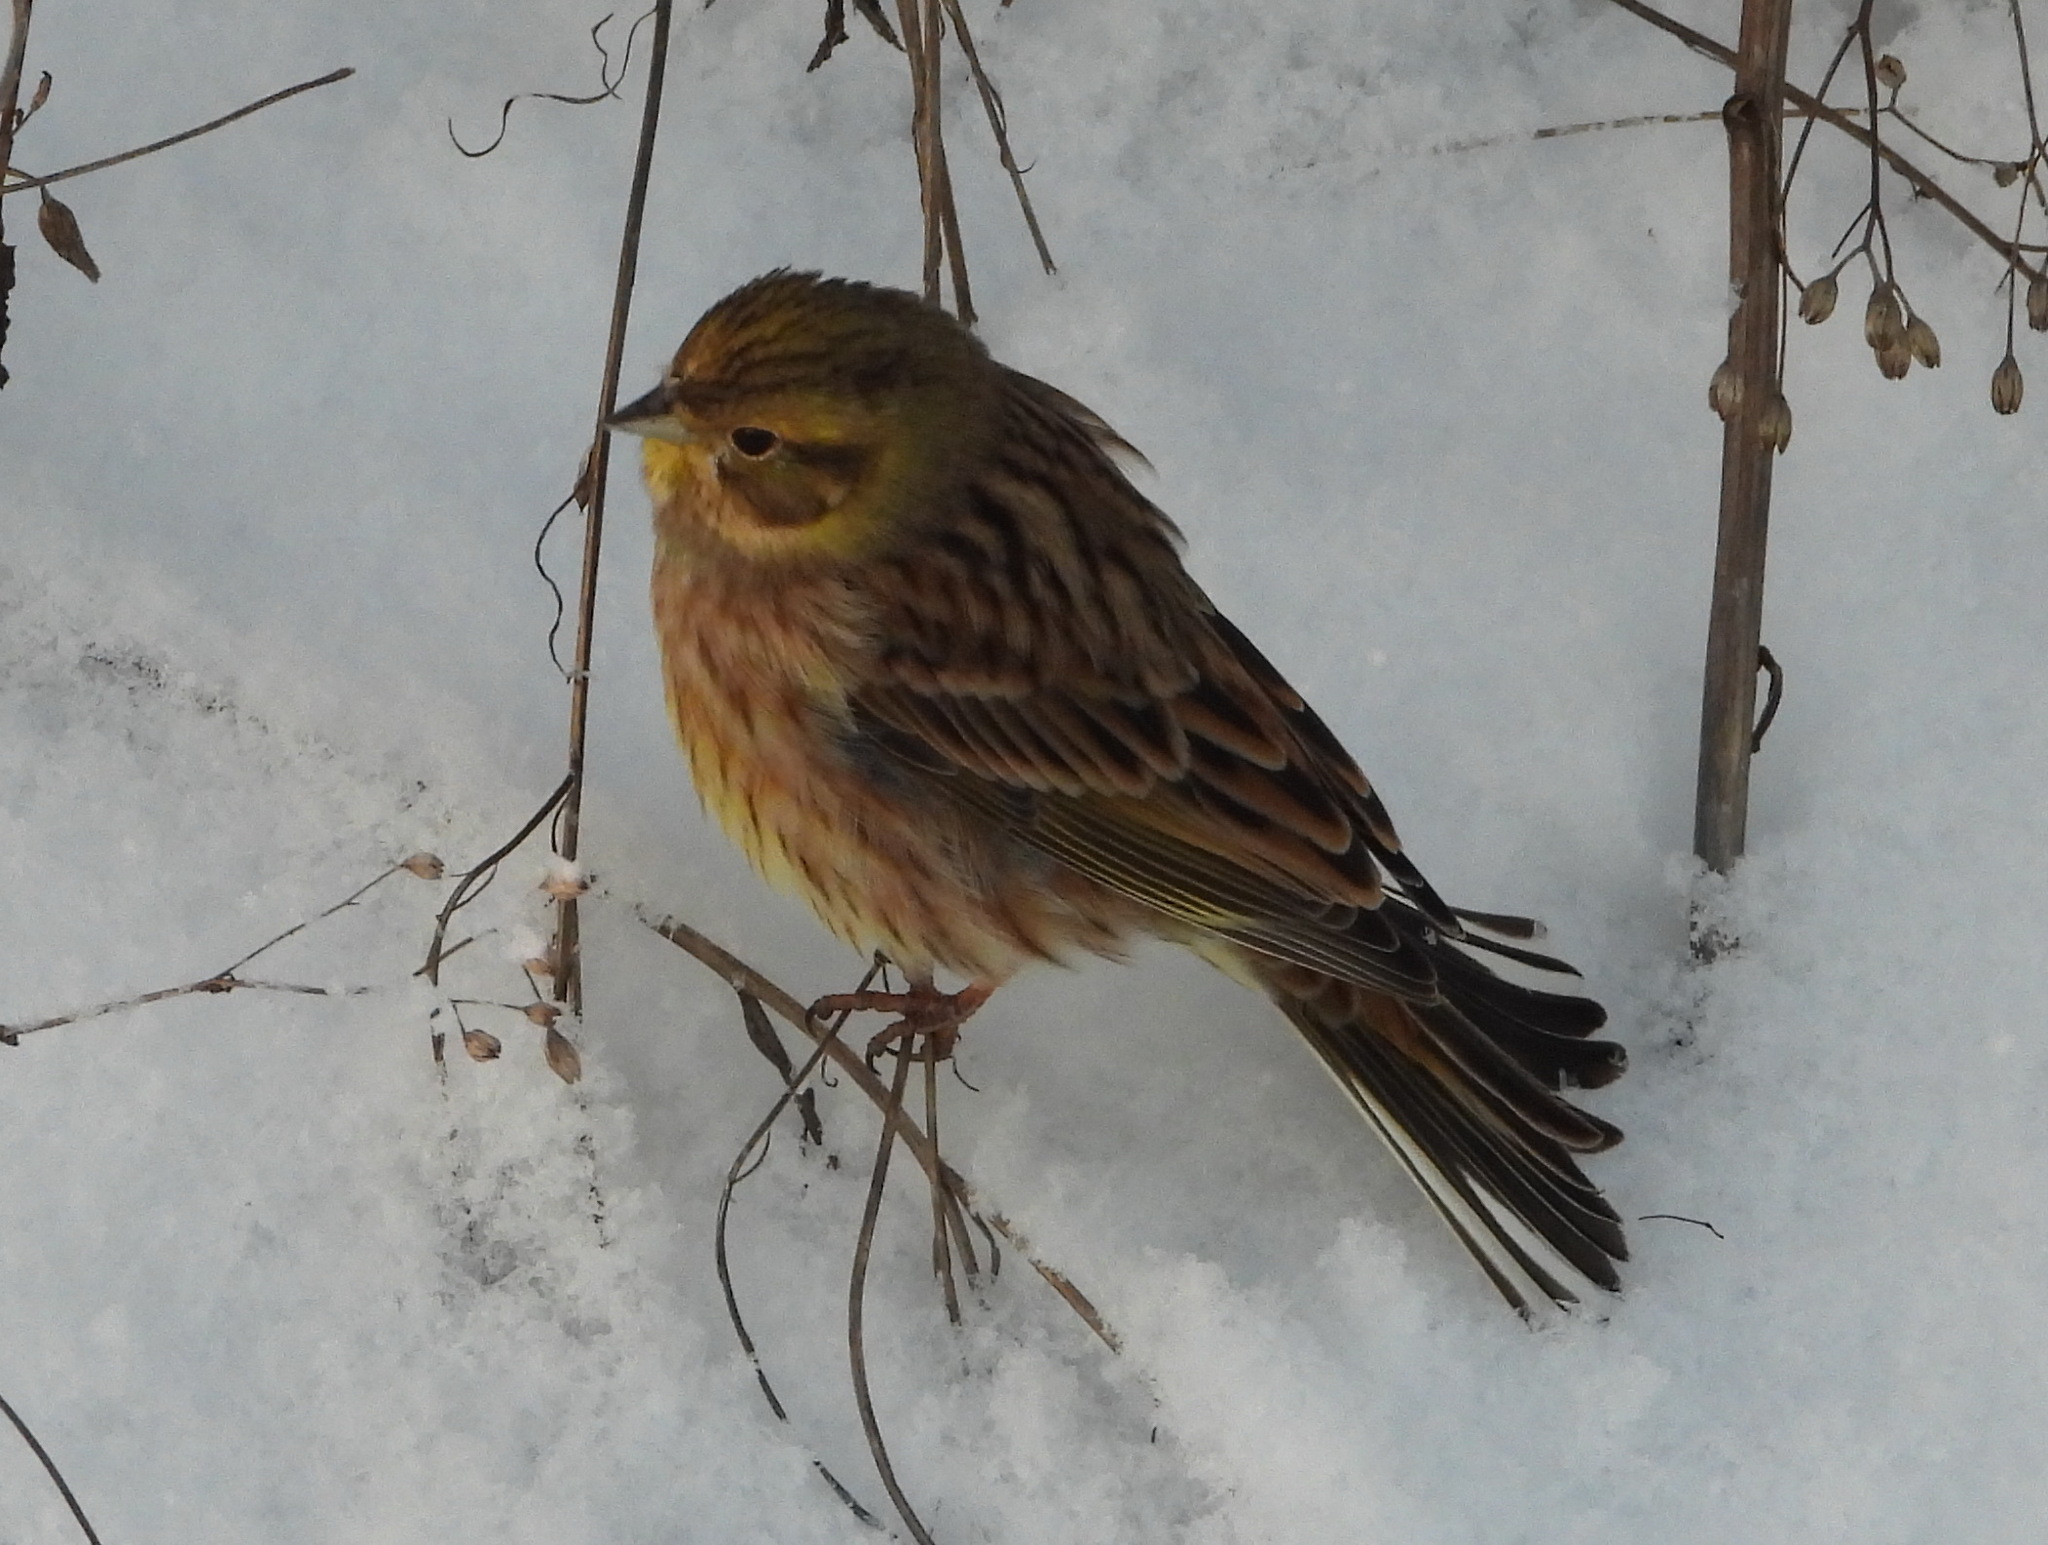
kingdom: Animalia
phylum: Chordata
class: Aves
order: Passeriformes
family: Emberizidae
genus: Emberiza
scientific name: Emberiza citrinella
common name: Yellowhammer
